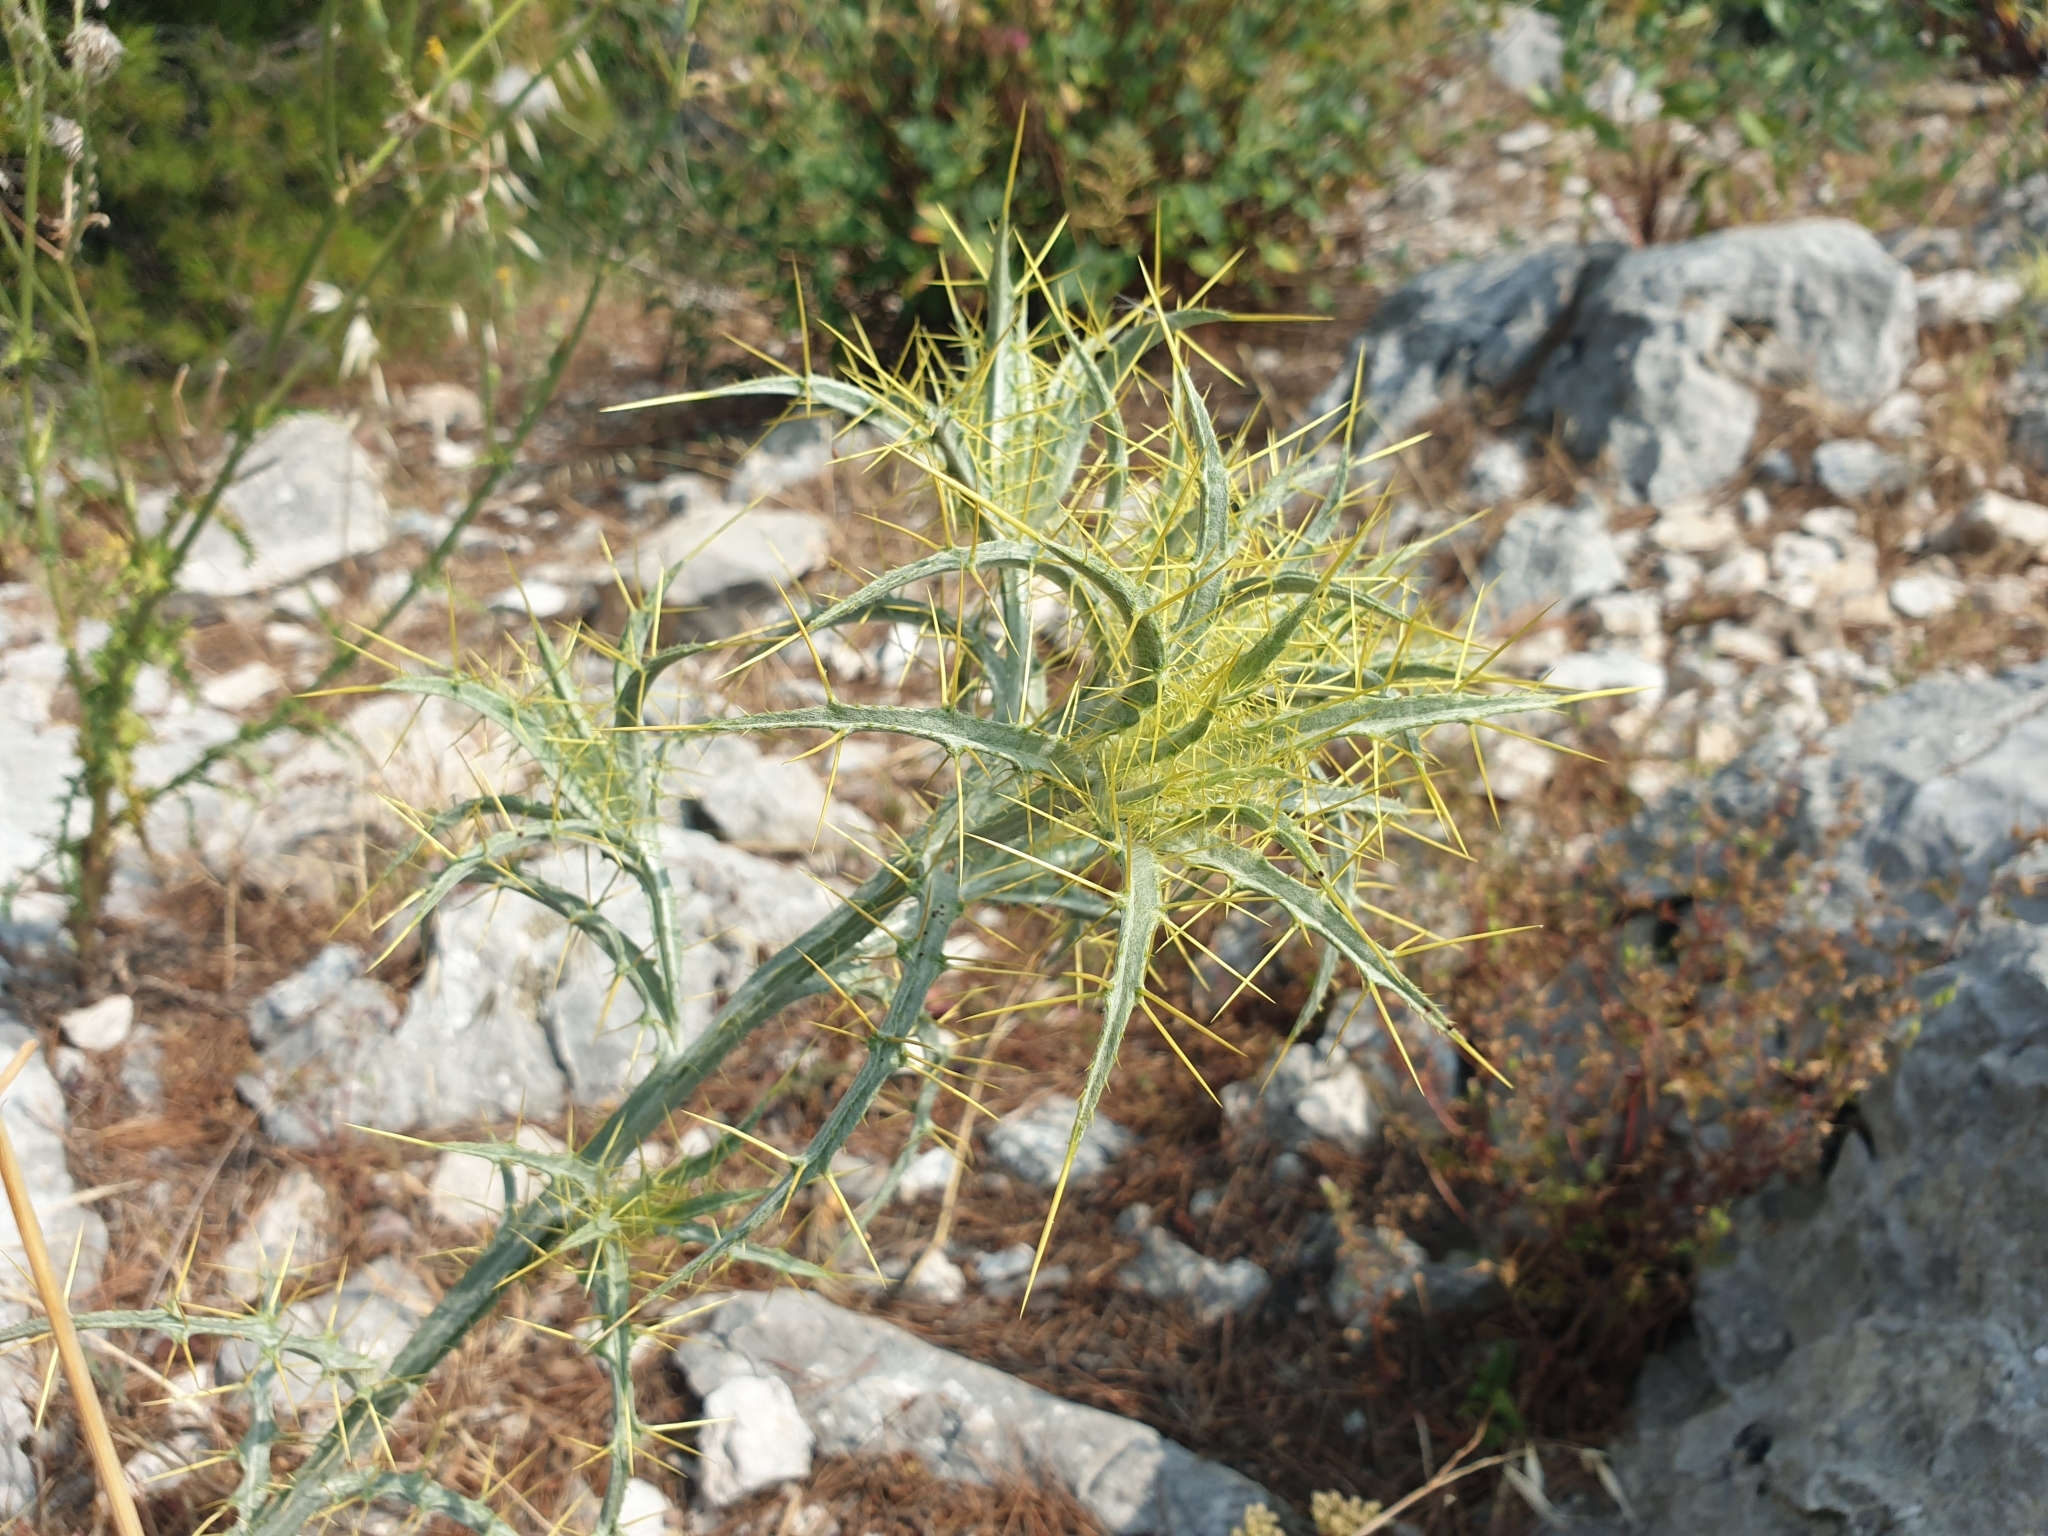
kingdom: Plantae
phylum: Tracheophyta
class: Magnoliopsida
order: Asterales
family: Asteraceae
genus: Picnomon
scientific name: Picnomon acarna
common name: Soldier thistle
